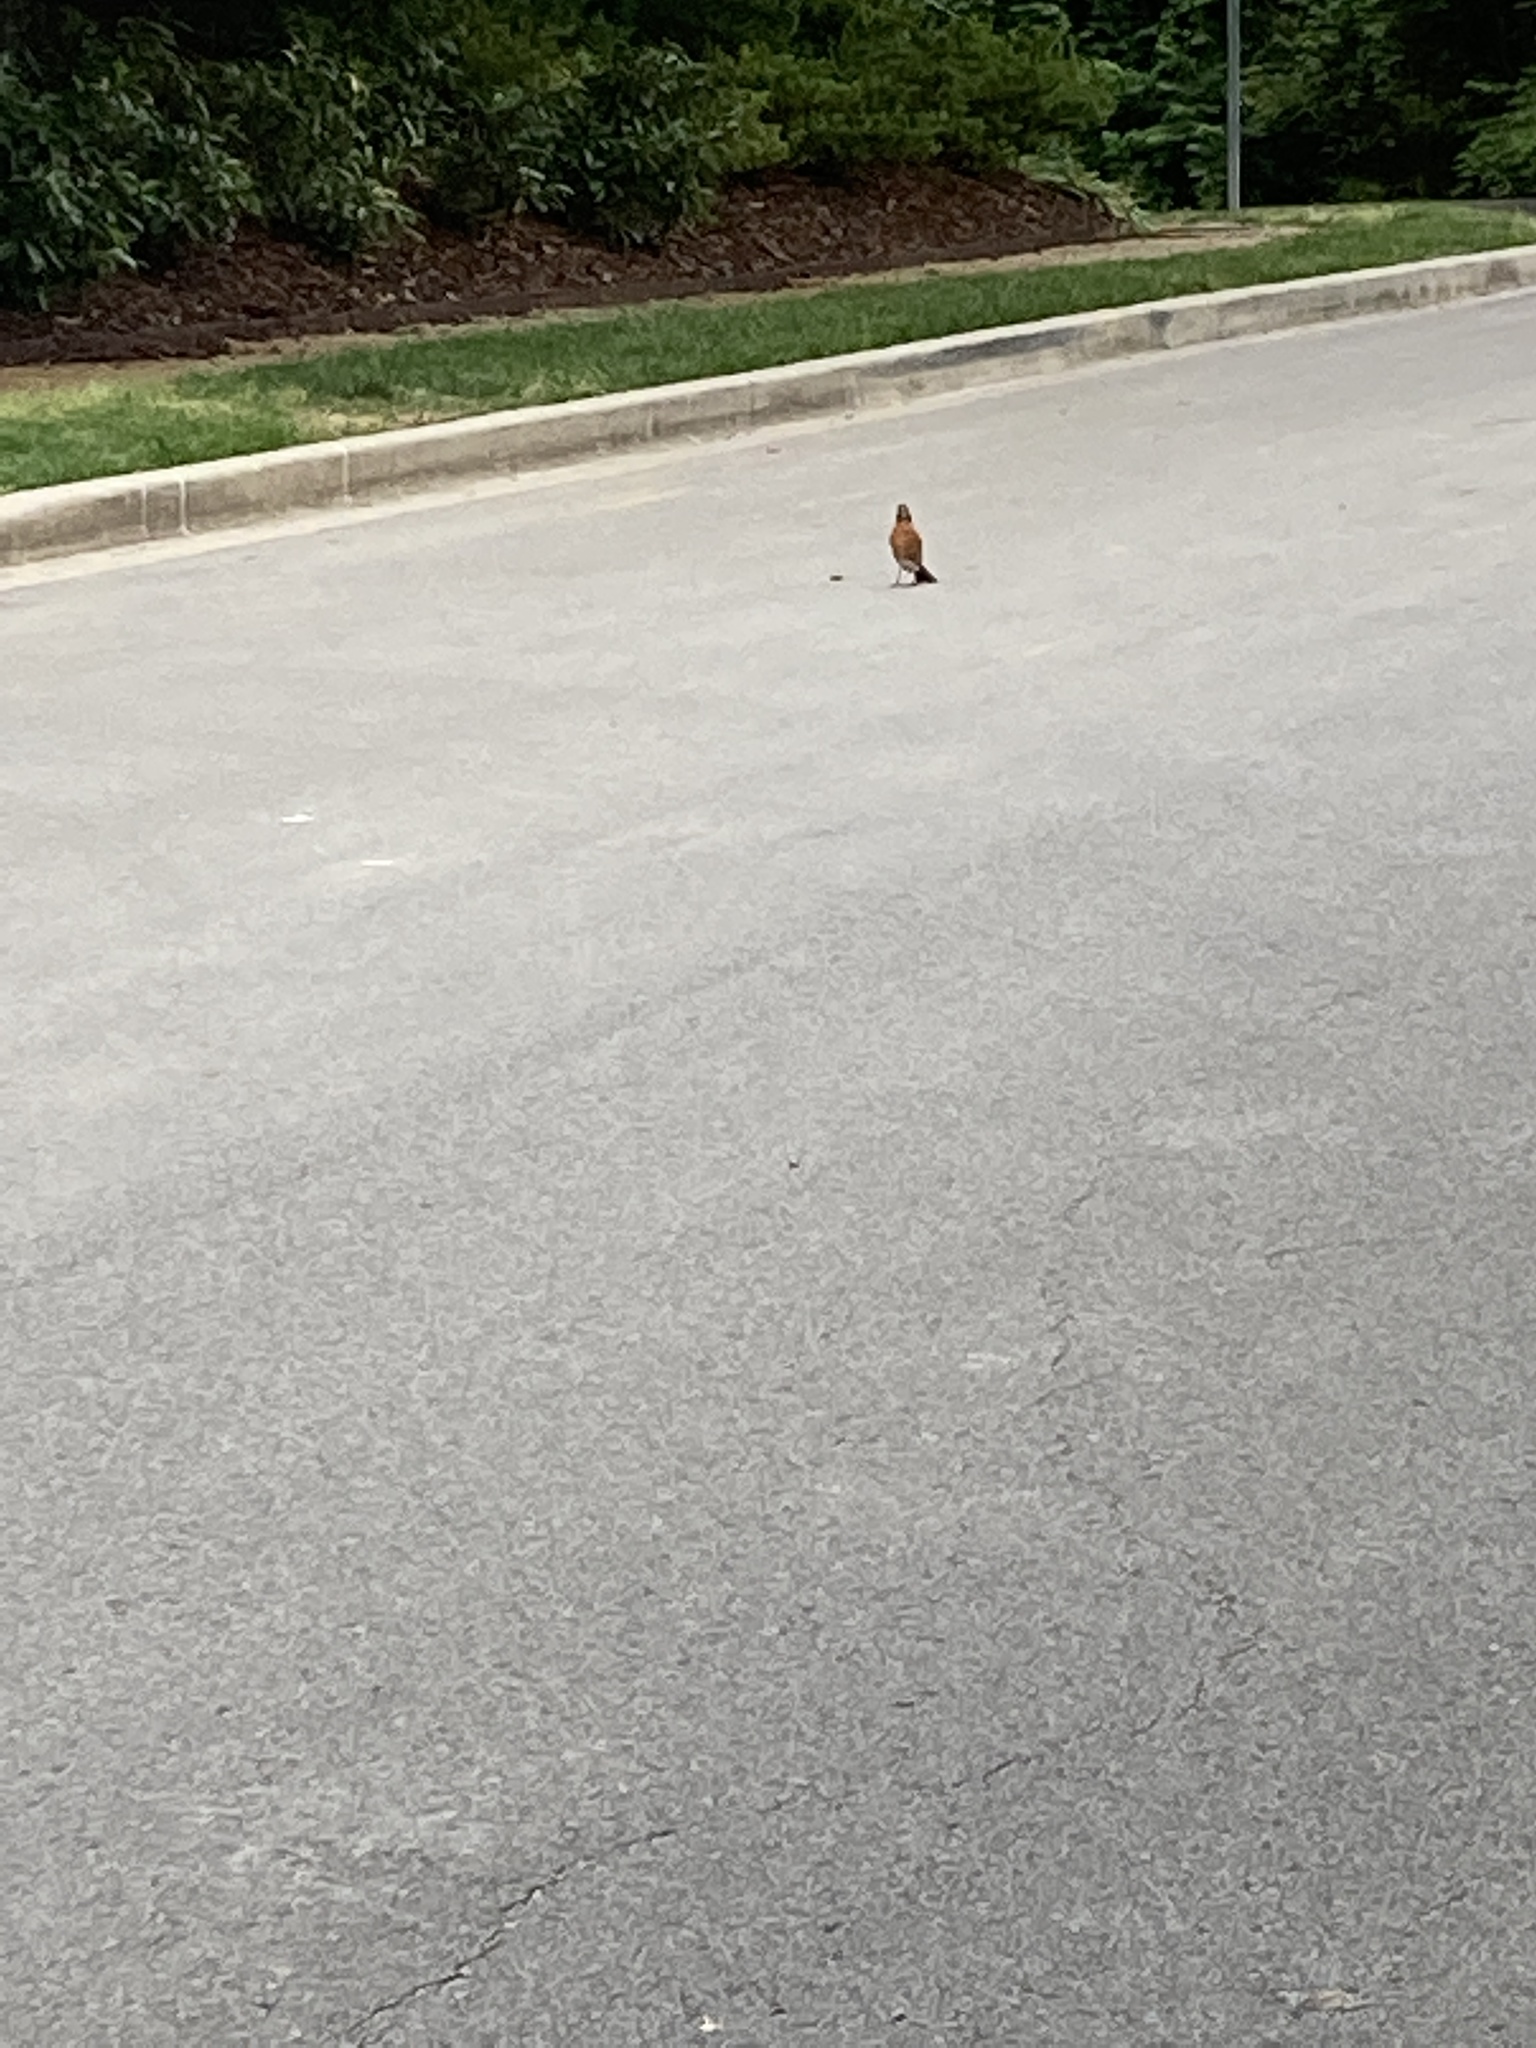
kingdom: Animalia
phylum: Chordata
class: Aves
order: Passeriformes
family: Turdidae
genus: Turdus
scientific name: Turdus migratorius
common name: American robin
